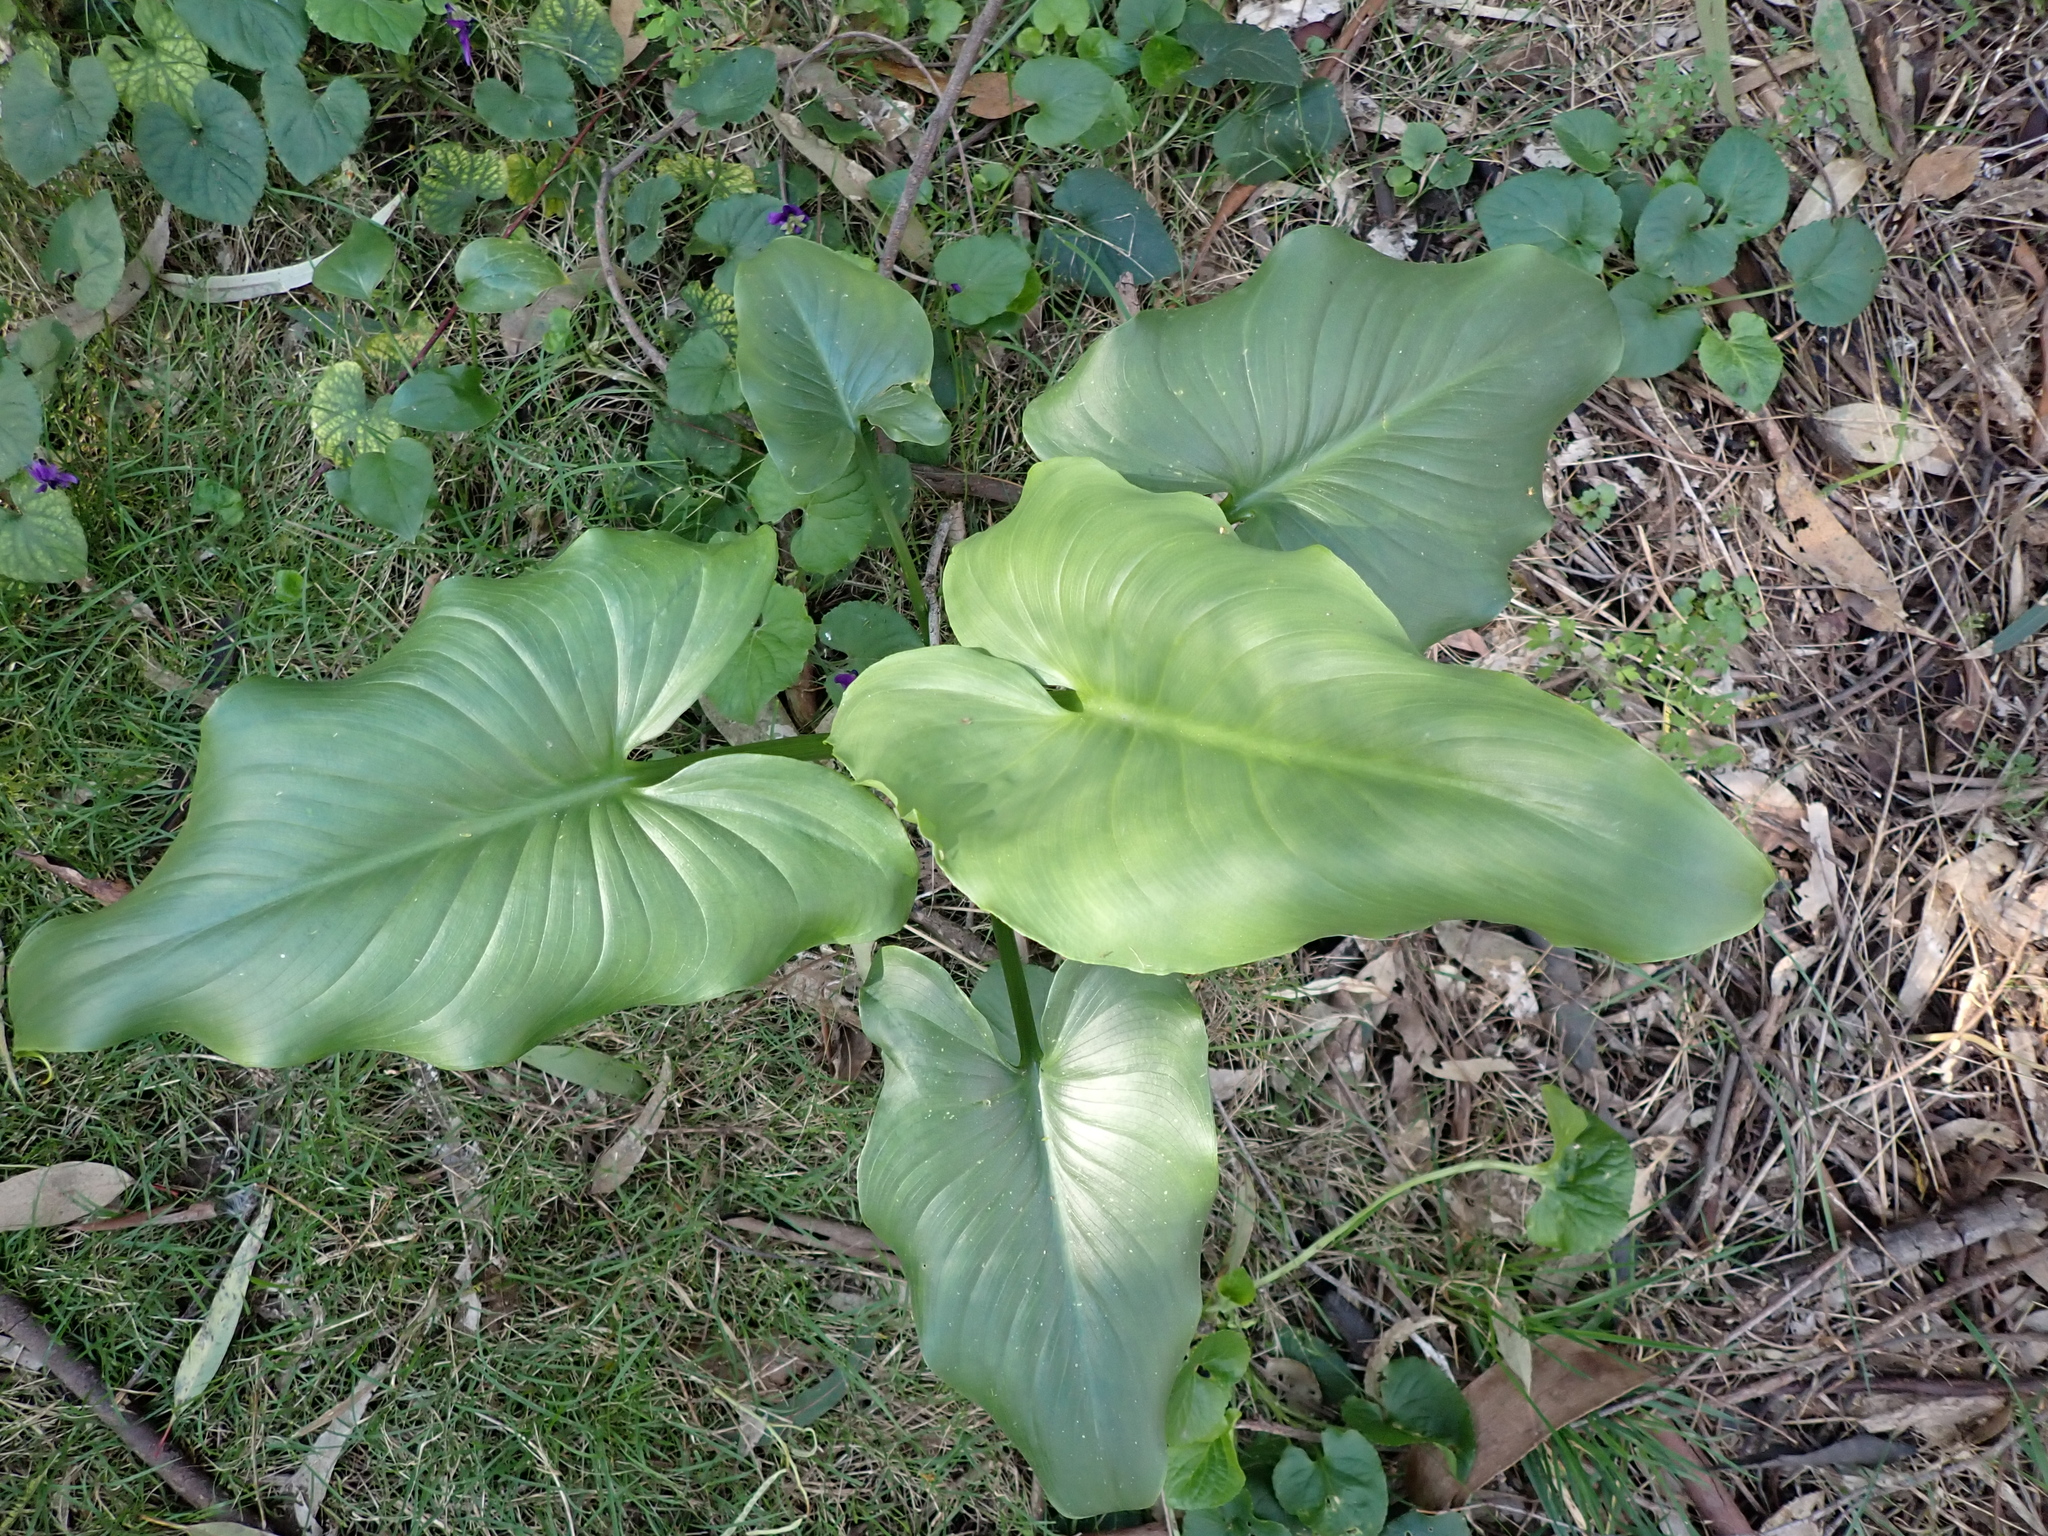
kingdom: Plantae
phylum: Tracheophyta
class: Liliopsida
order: Alismatales
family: Araceae
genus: Zantedeschia
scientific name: Zantedeschia aethiopica
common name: Altar-lily
